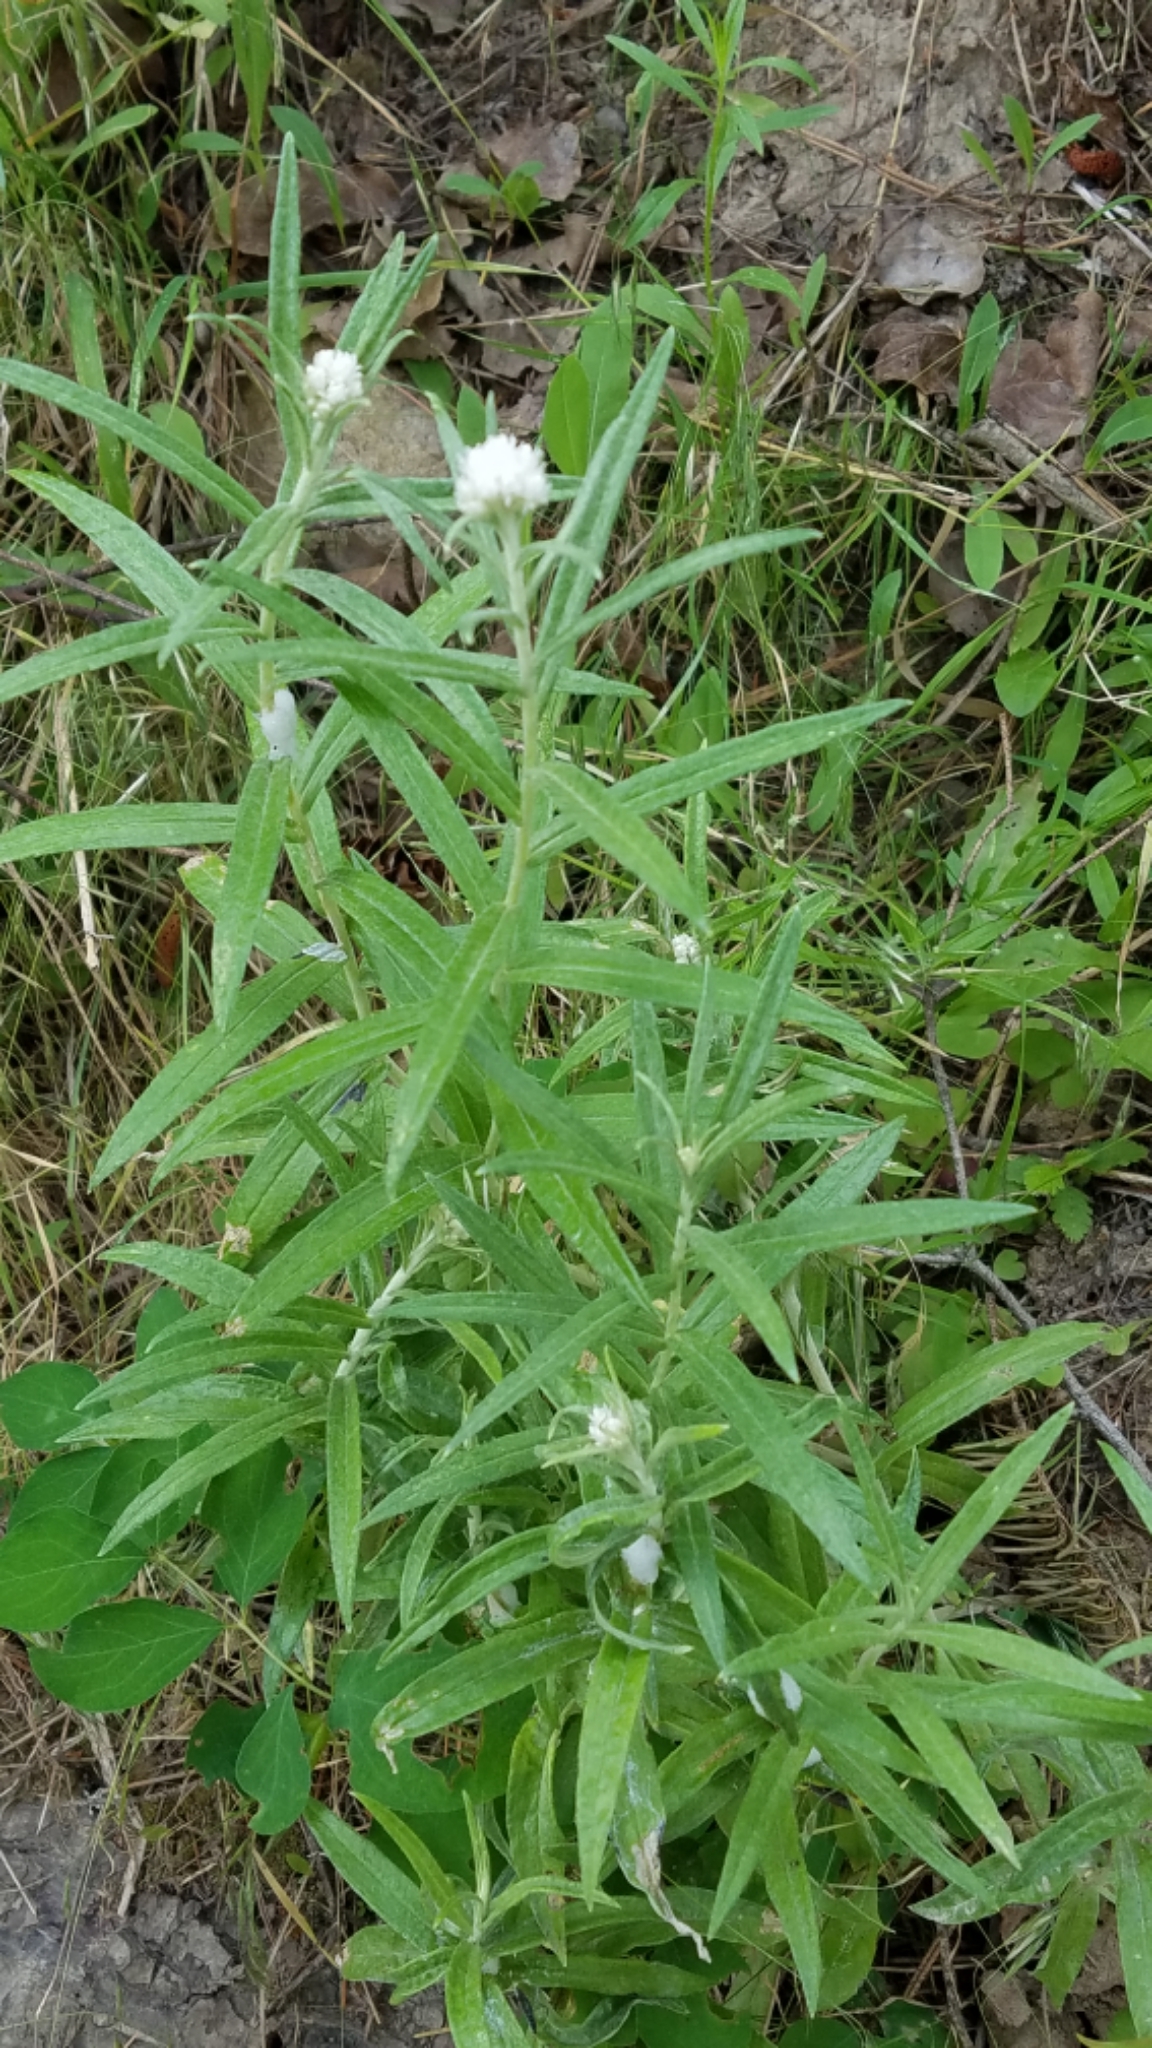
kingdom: Plantae
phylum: Tracheophyta
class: Magnoliopsida
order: Asterales
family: Asteraceae
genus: Anaphalis
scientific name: Anaphalis margaritacea
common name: Pearly everlasting
